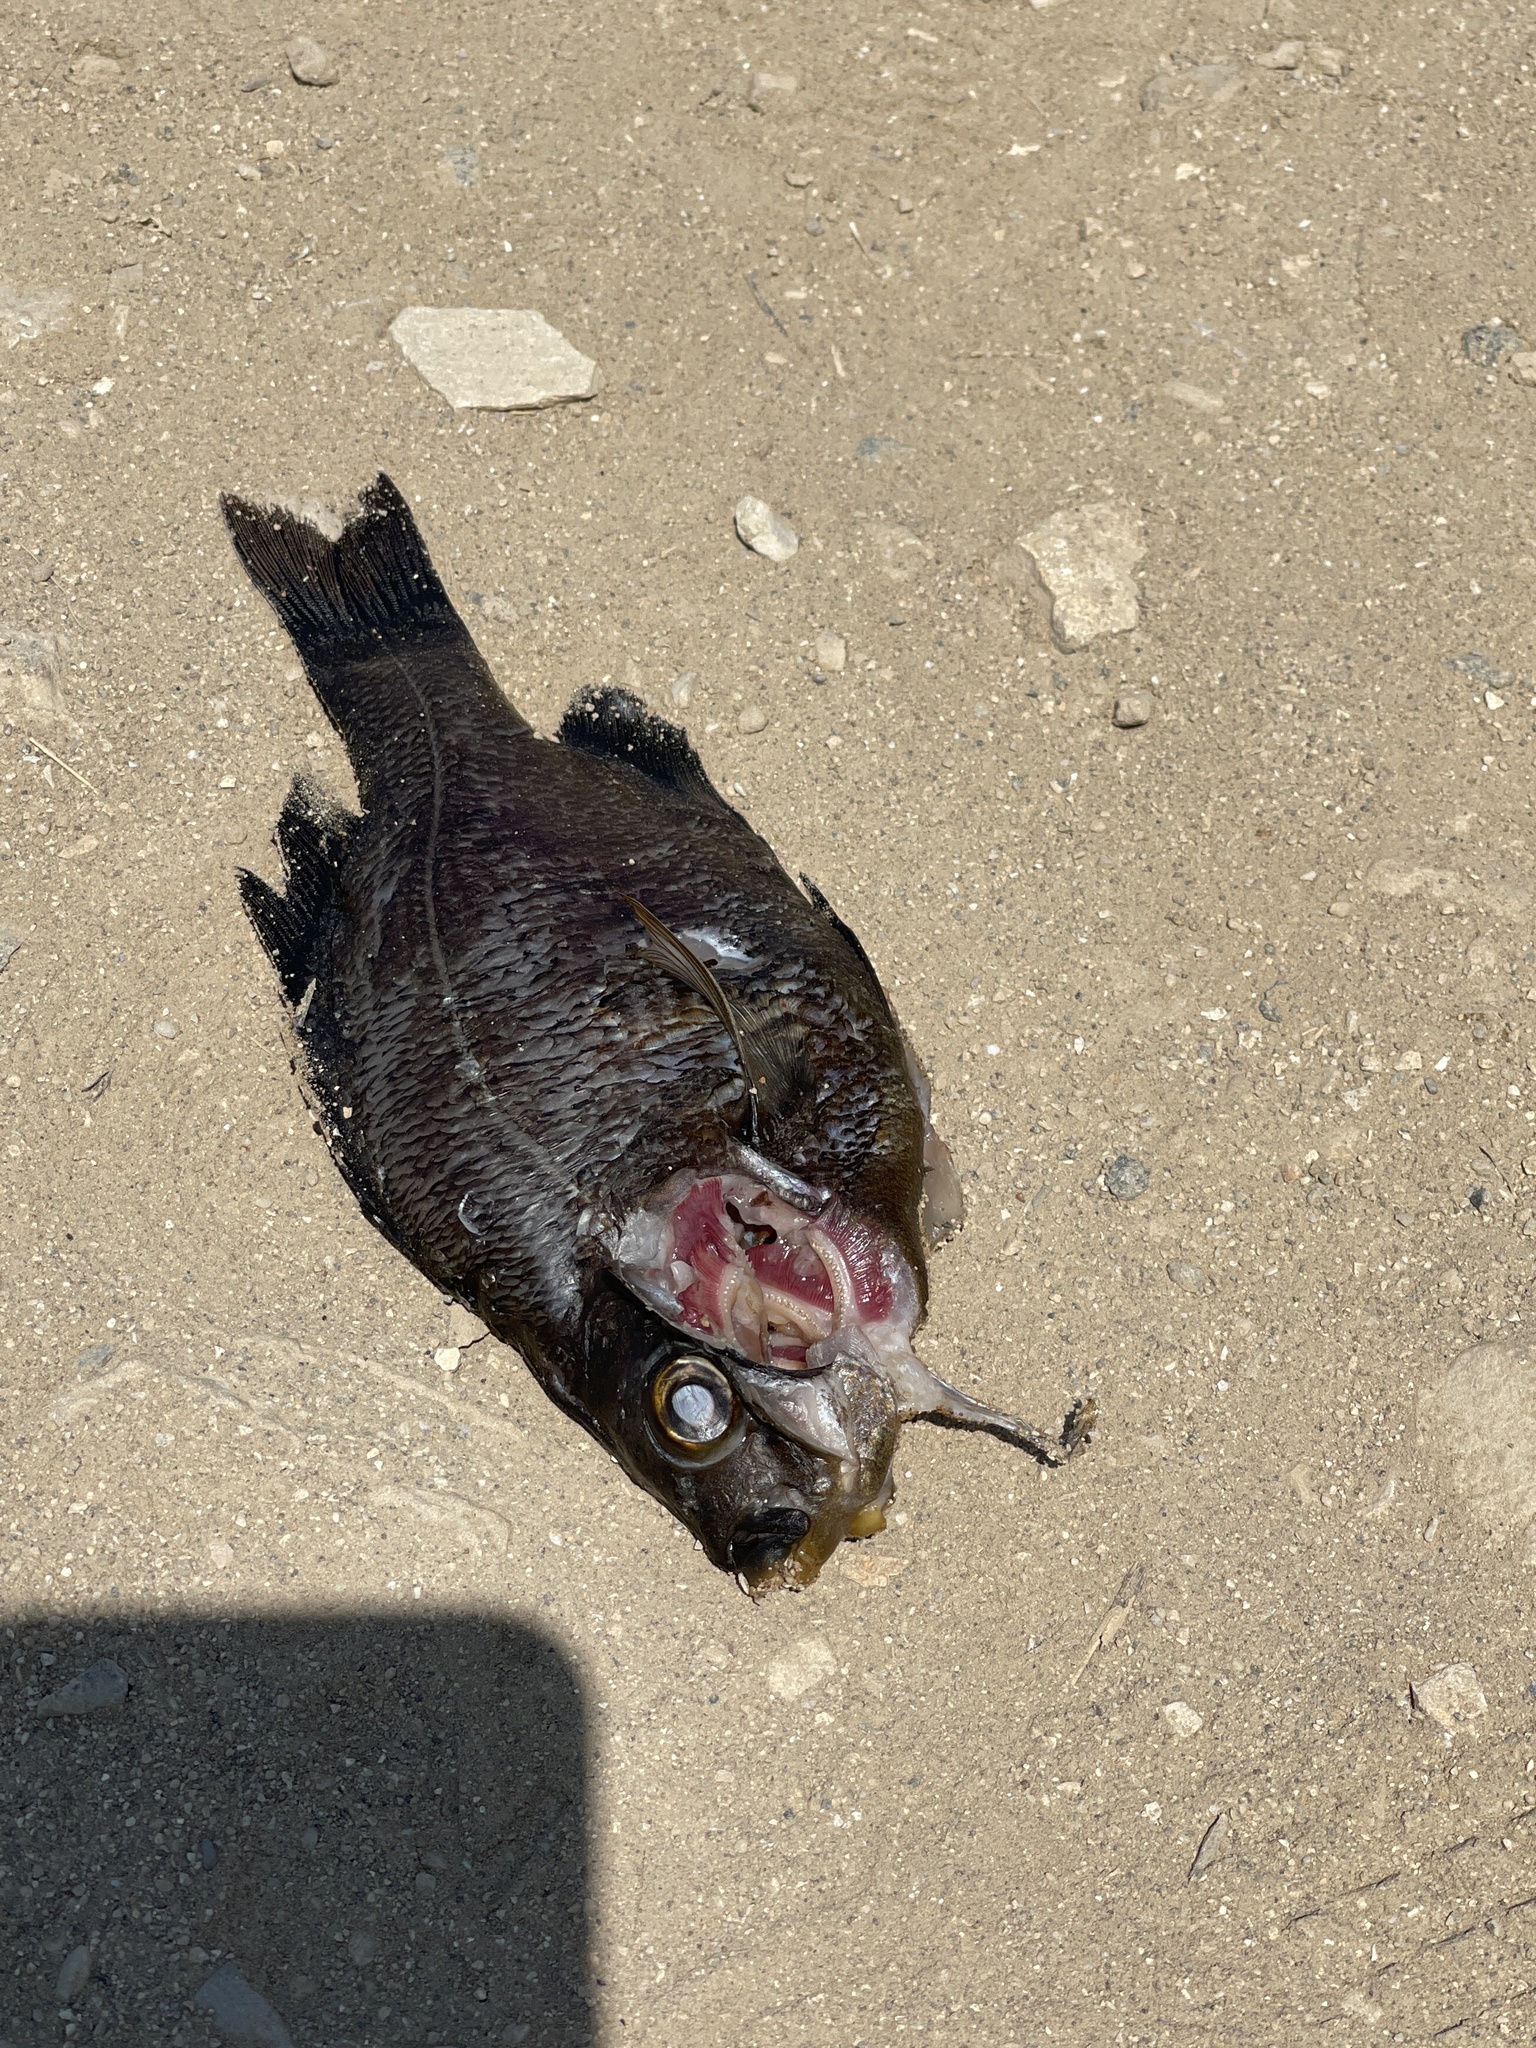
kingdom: Animalia
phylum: Chordata
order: Perciformes
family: Embiotocidae
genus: Embiotoca
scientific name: Embiotoca jacksoni
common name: Black perch
